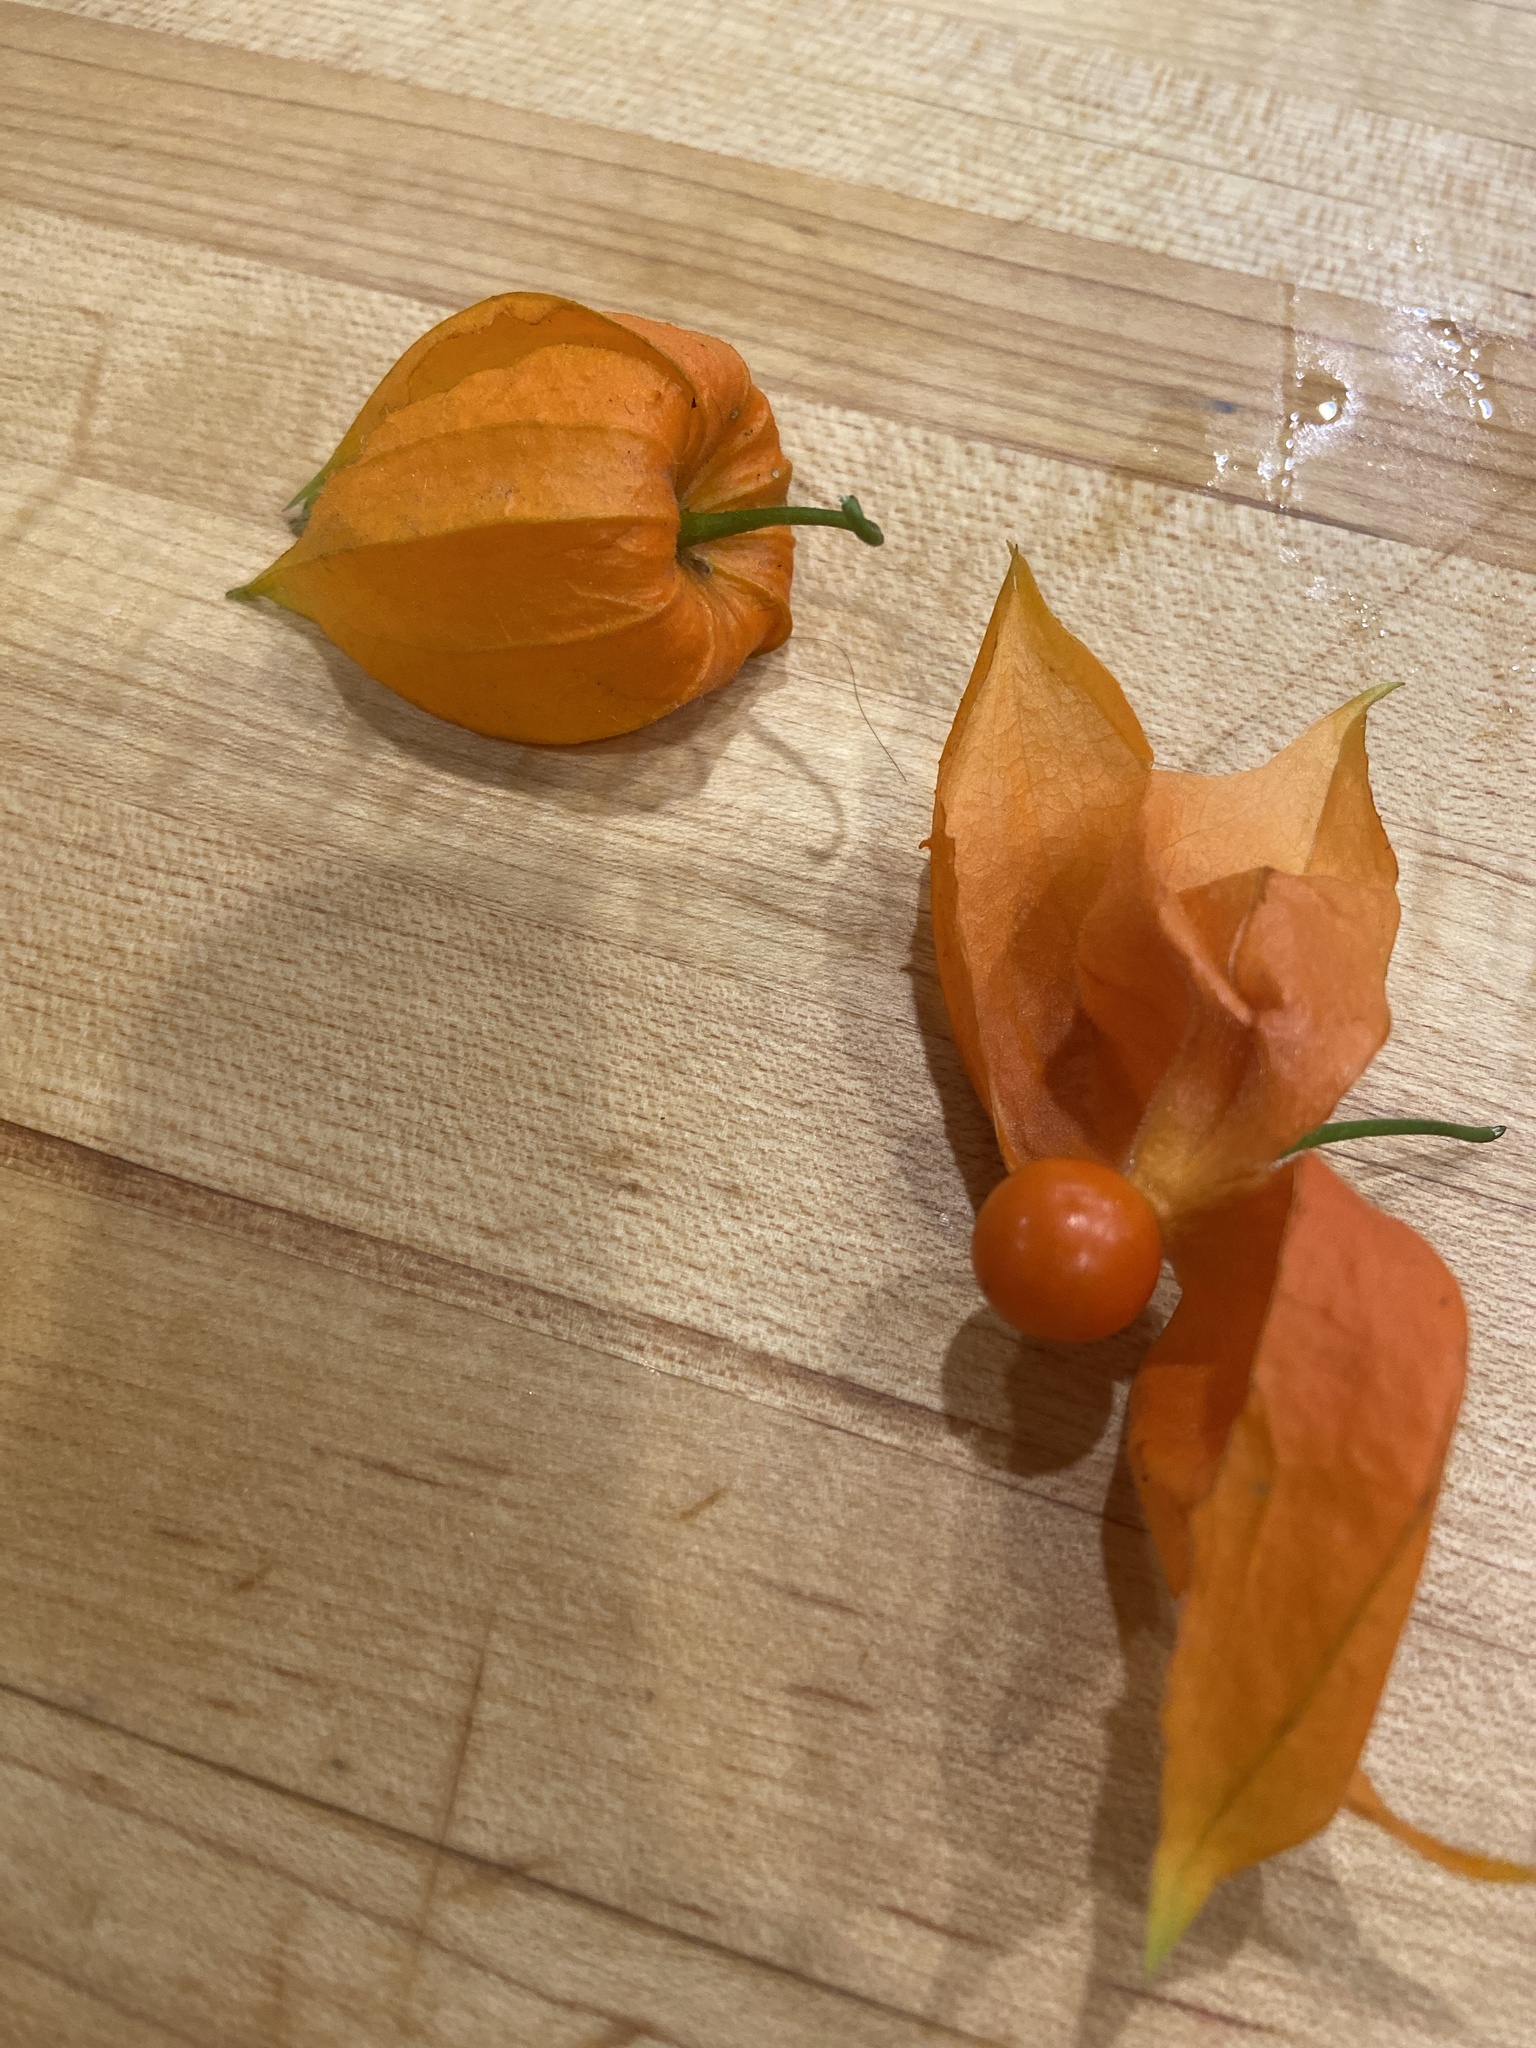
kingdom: Plantae
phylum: Tracheophyta
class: Magnoliopsida
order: Solanales
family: Solanaceae
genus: Alkekengi
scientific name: Alkekengi officinarum
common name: Japanese-lantern
